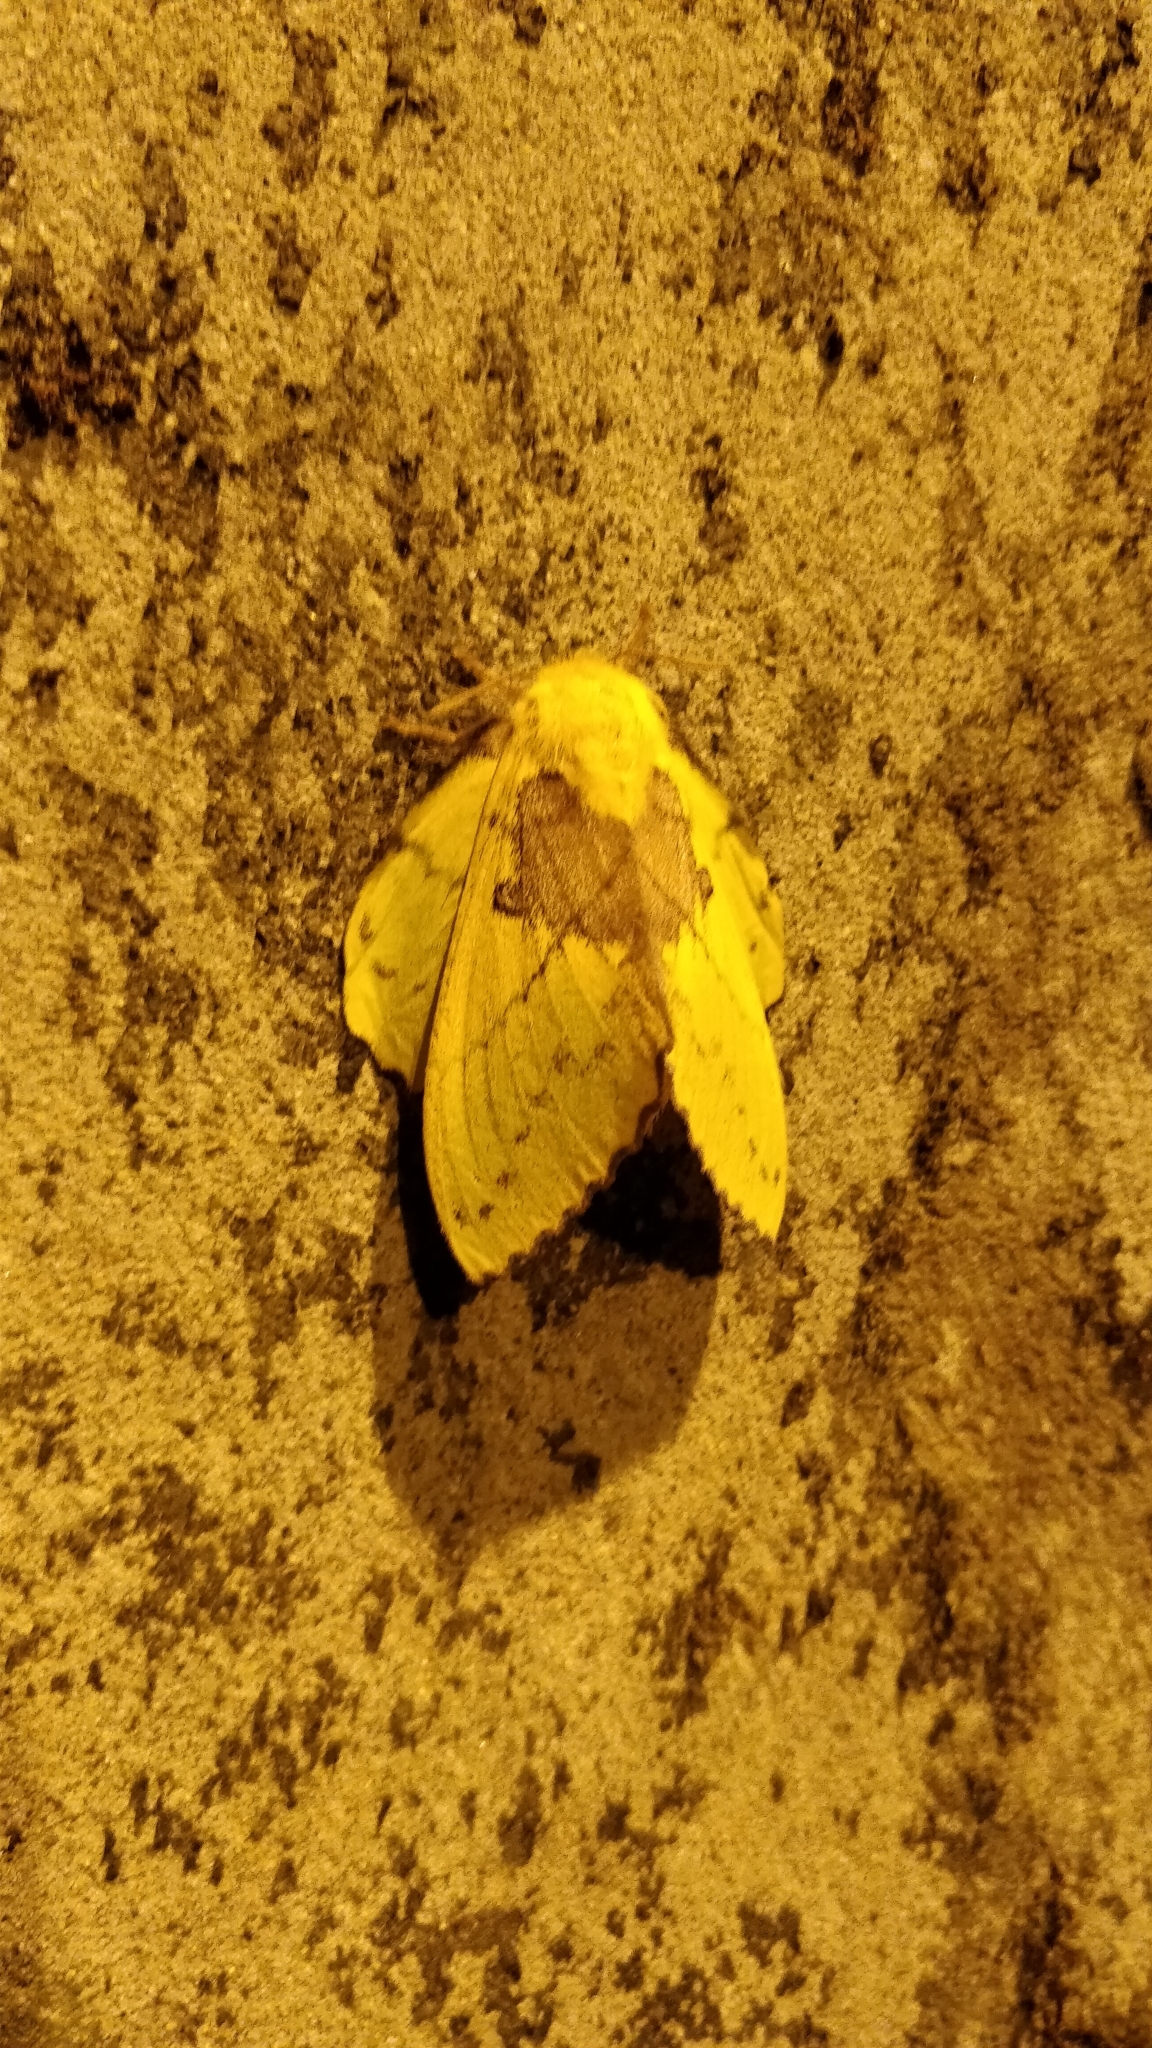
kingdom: Animalia
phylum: Arthropoda
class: Insecta
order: Lepidoptera
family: Lasiocampidae
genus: Trabala
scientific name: Trabala vishnou
